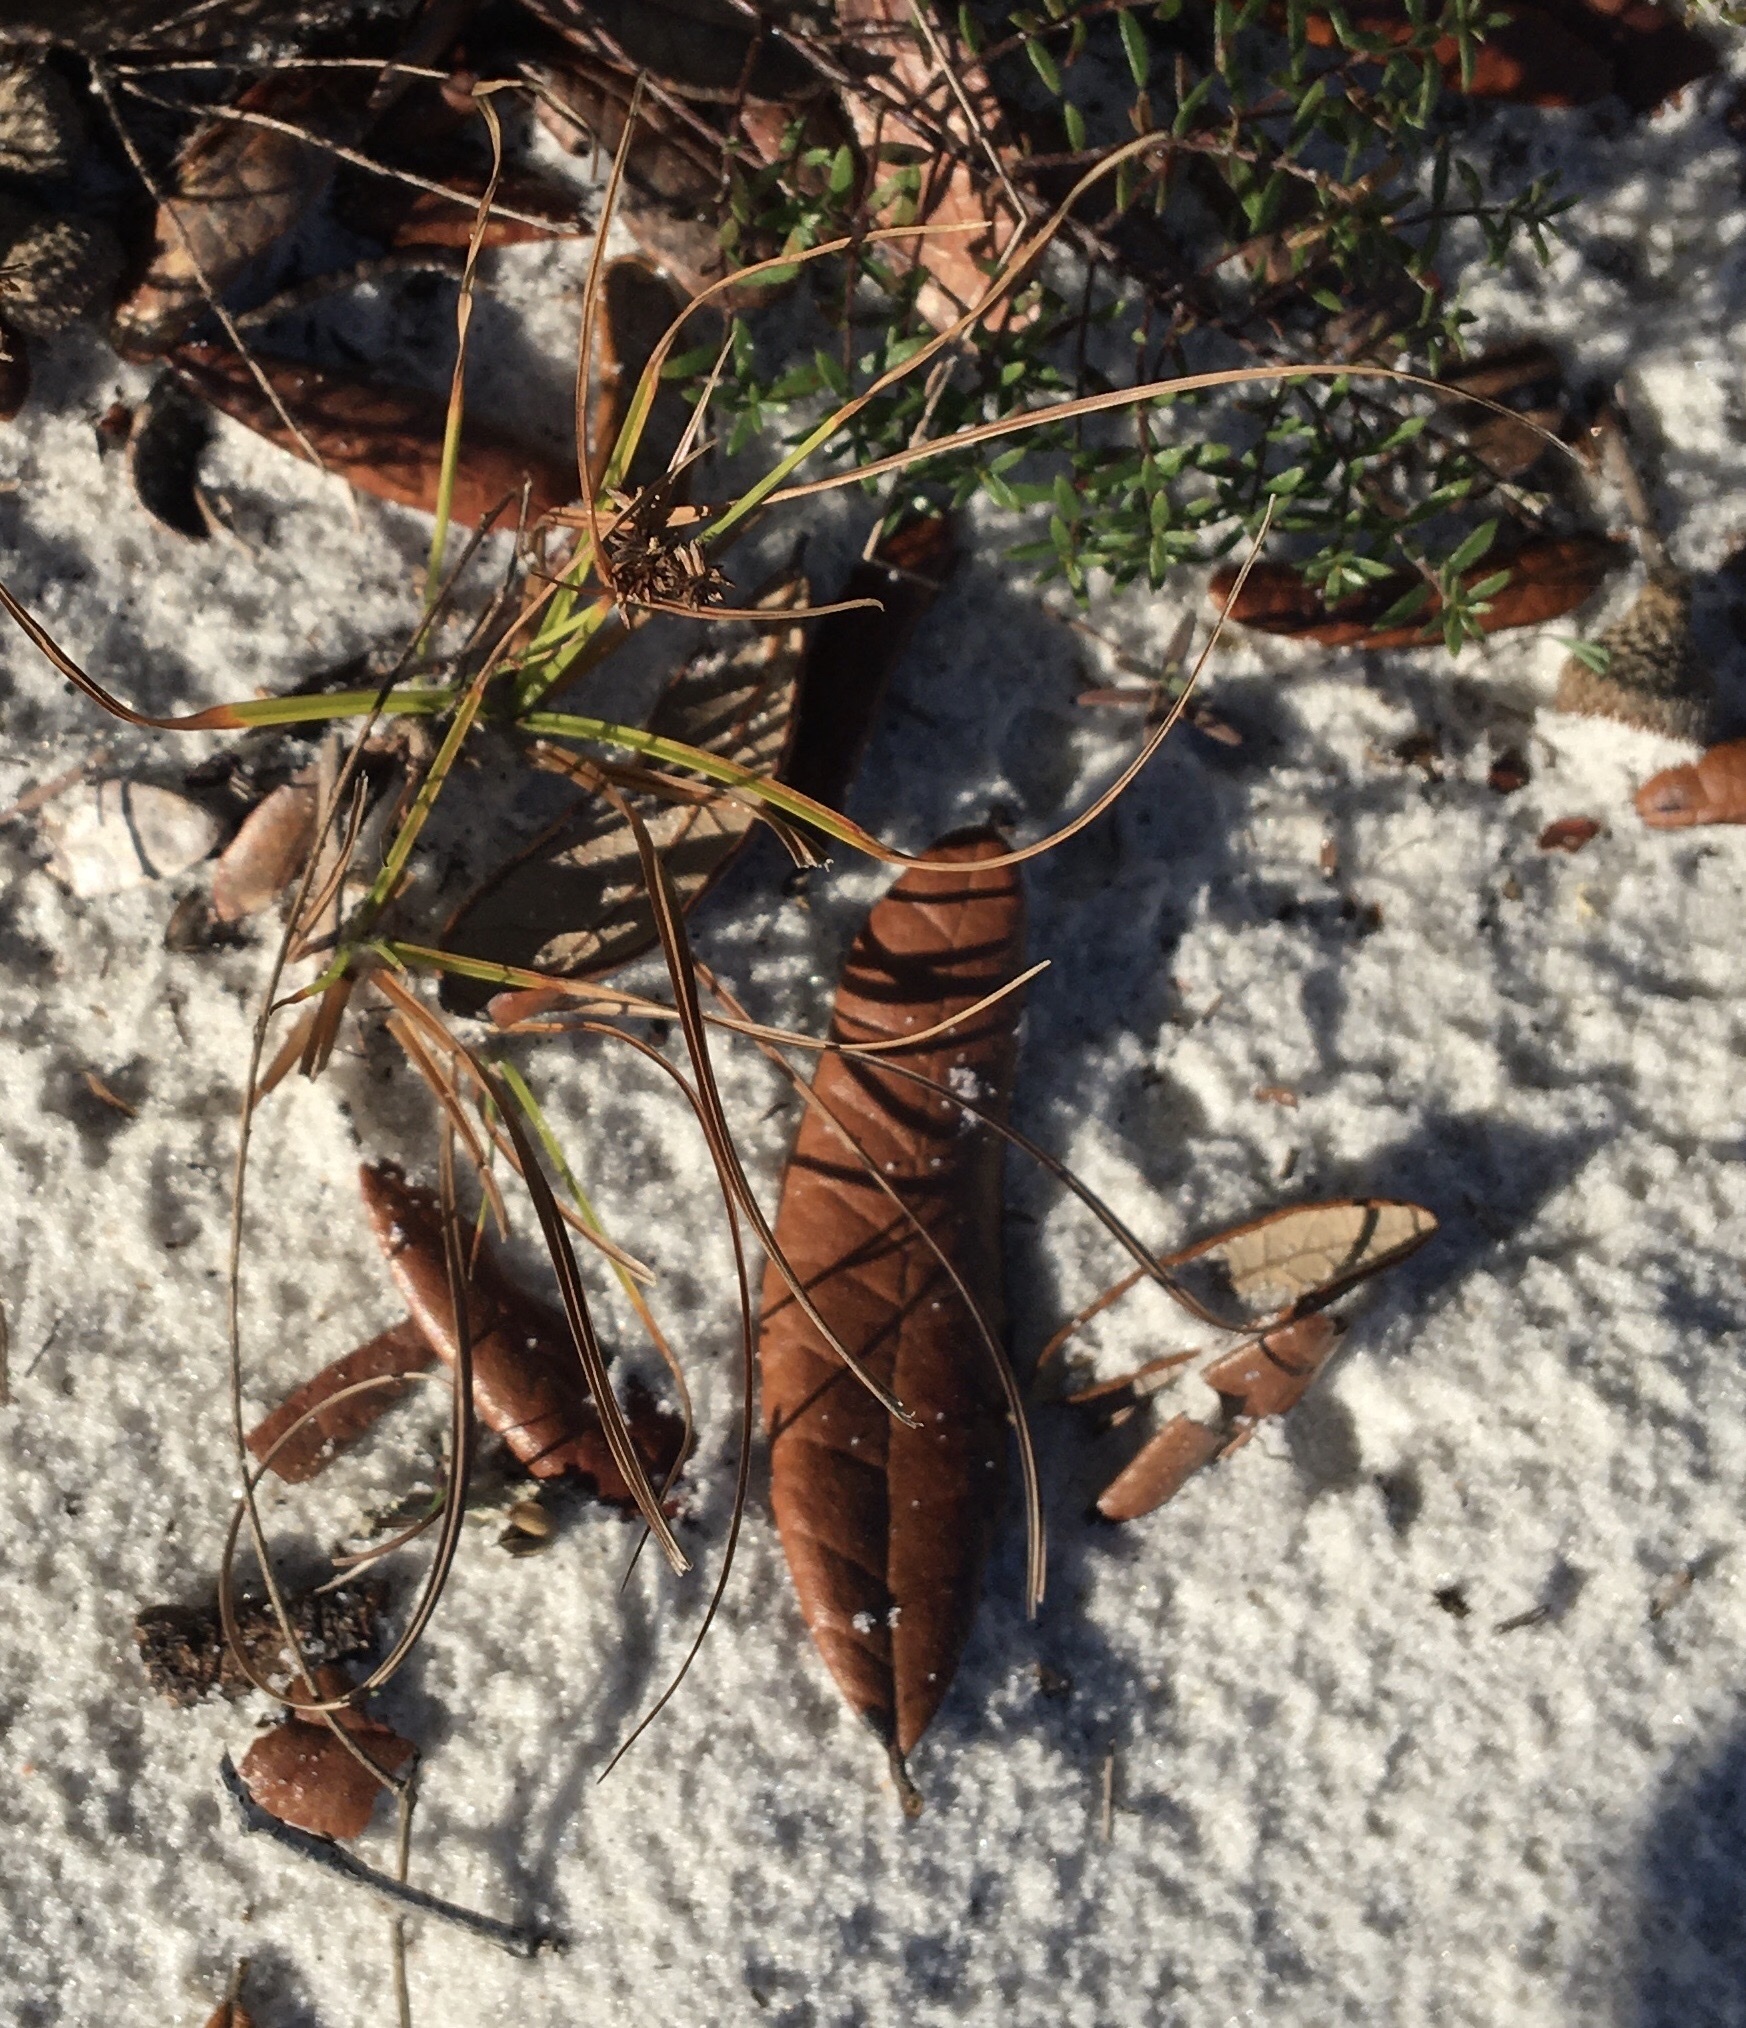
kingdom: Plantae
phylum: Tracheophyta
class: Liliopsida
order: Poales
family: Cyperaceae
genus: Cyperus
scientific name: Cyperus retrorsus
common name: Pinebarren flat sedge
